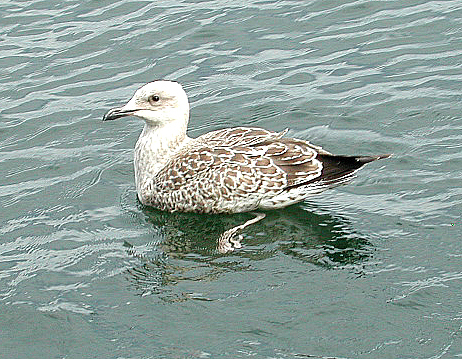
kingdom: Animalia
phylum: Chordata
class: Aves
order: Charadriiformes
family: Laridae
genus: Larus
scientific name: Larus argentatus
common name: Herring gull
